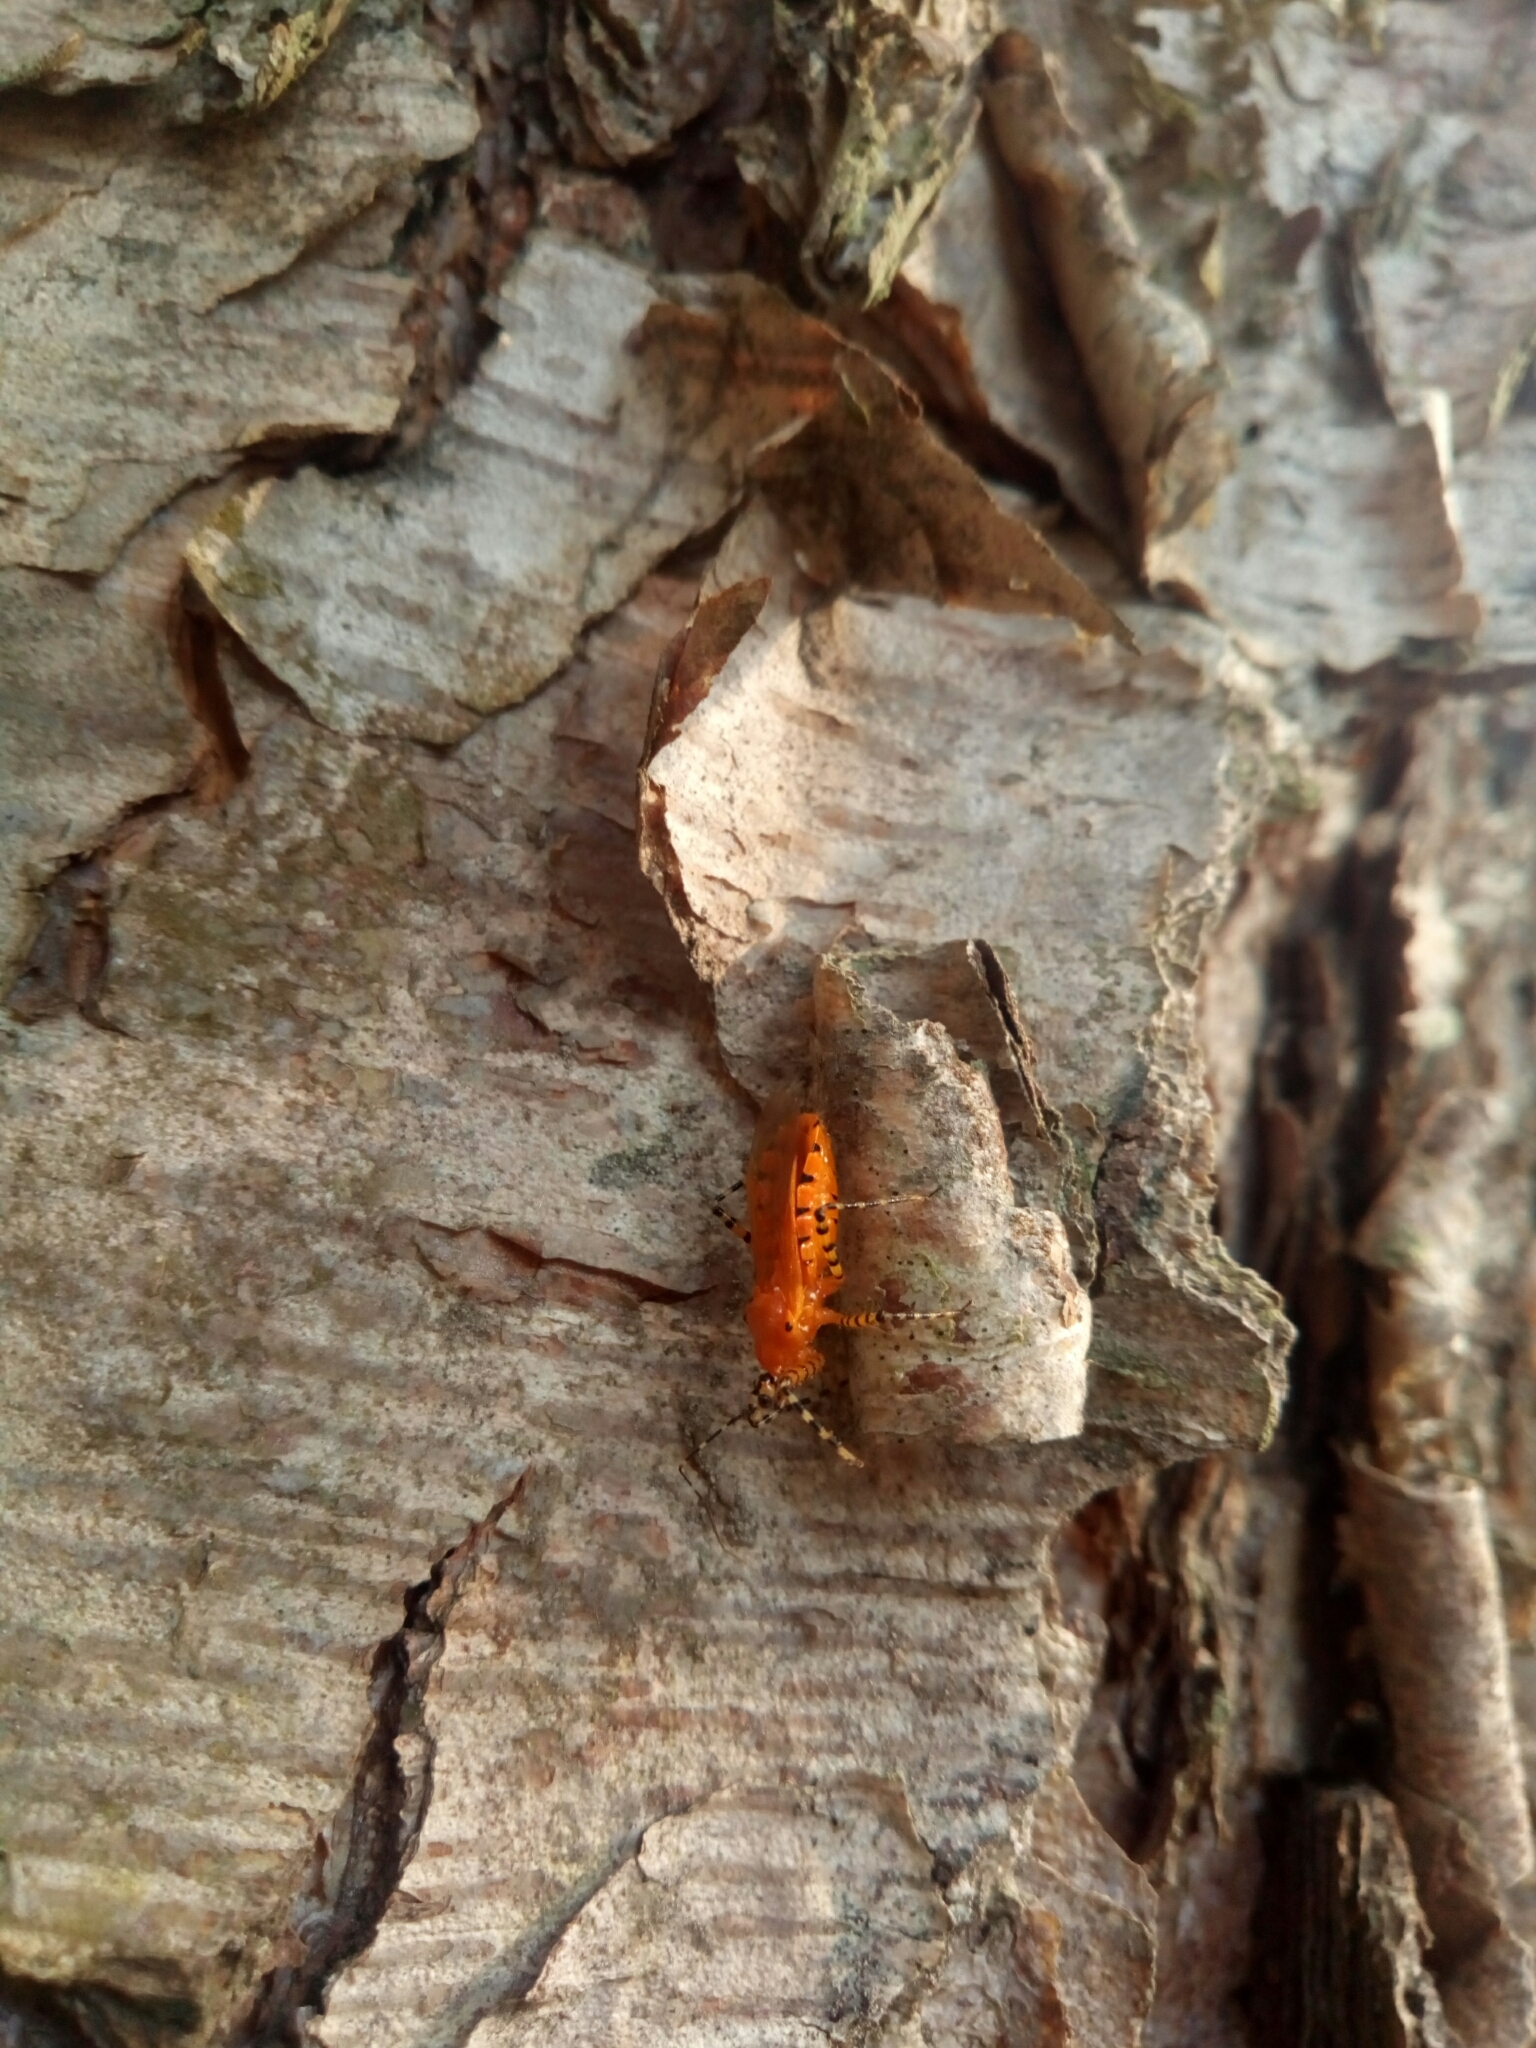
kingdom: Animalia
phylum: Arthropoda
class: Insecta
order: Hemiptera
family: Reduviidae
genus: Pselliopus
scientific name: Pselliopus barberi
